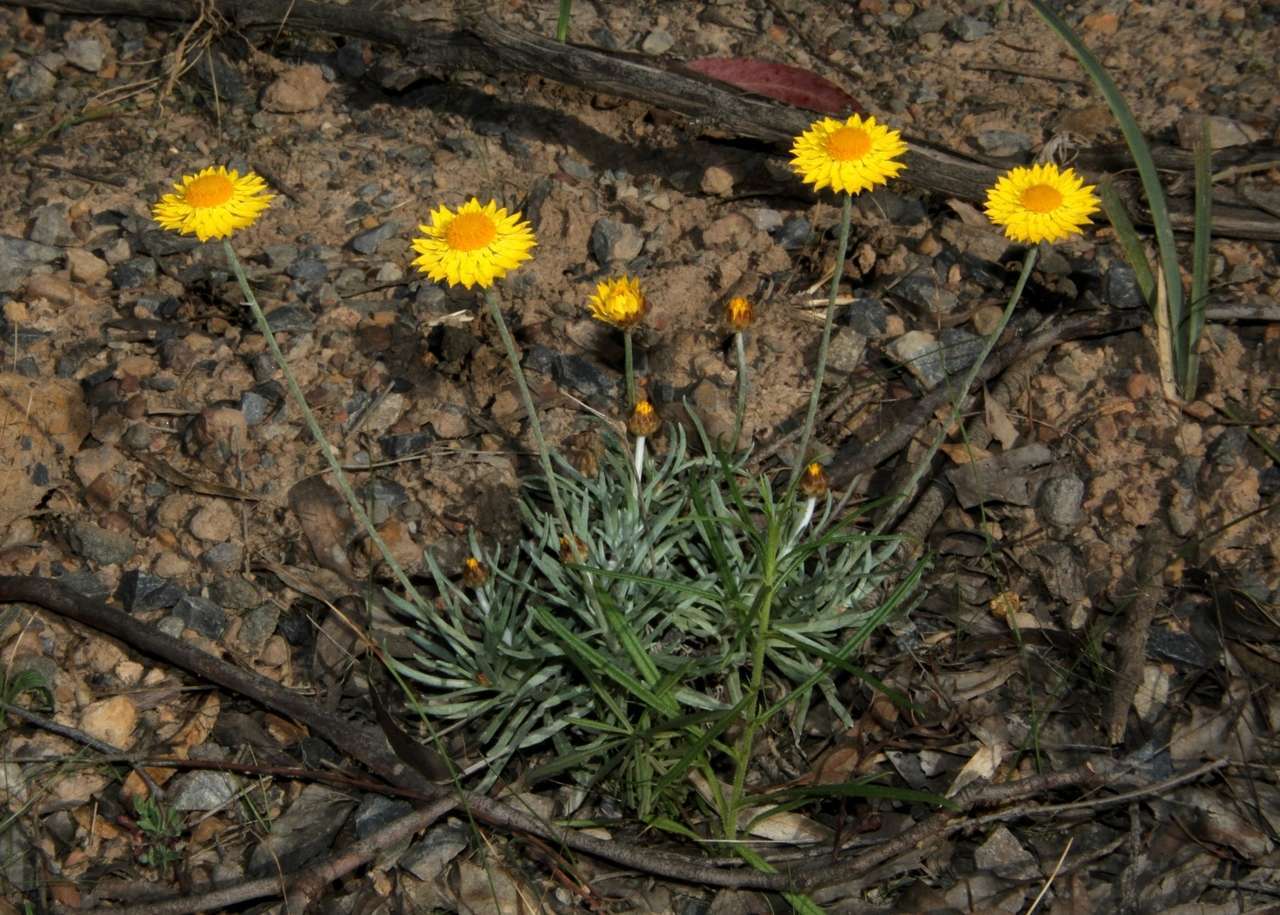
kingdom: Plantae
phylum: Tracheophyta
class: Magnoliopsida
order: Asterales
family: Asteraceae
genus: Leucochrysum
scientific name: Leucochrysum albicans
